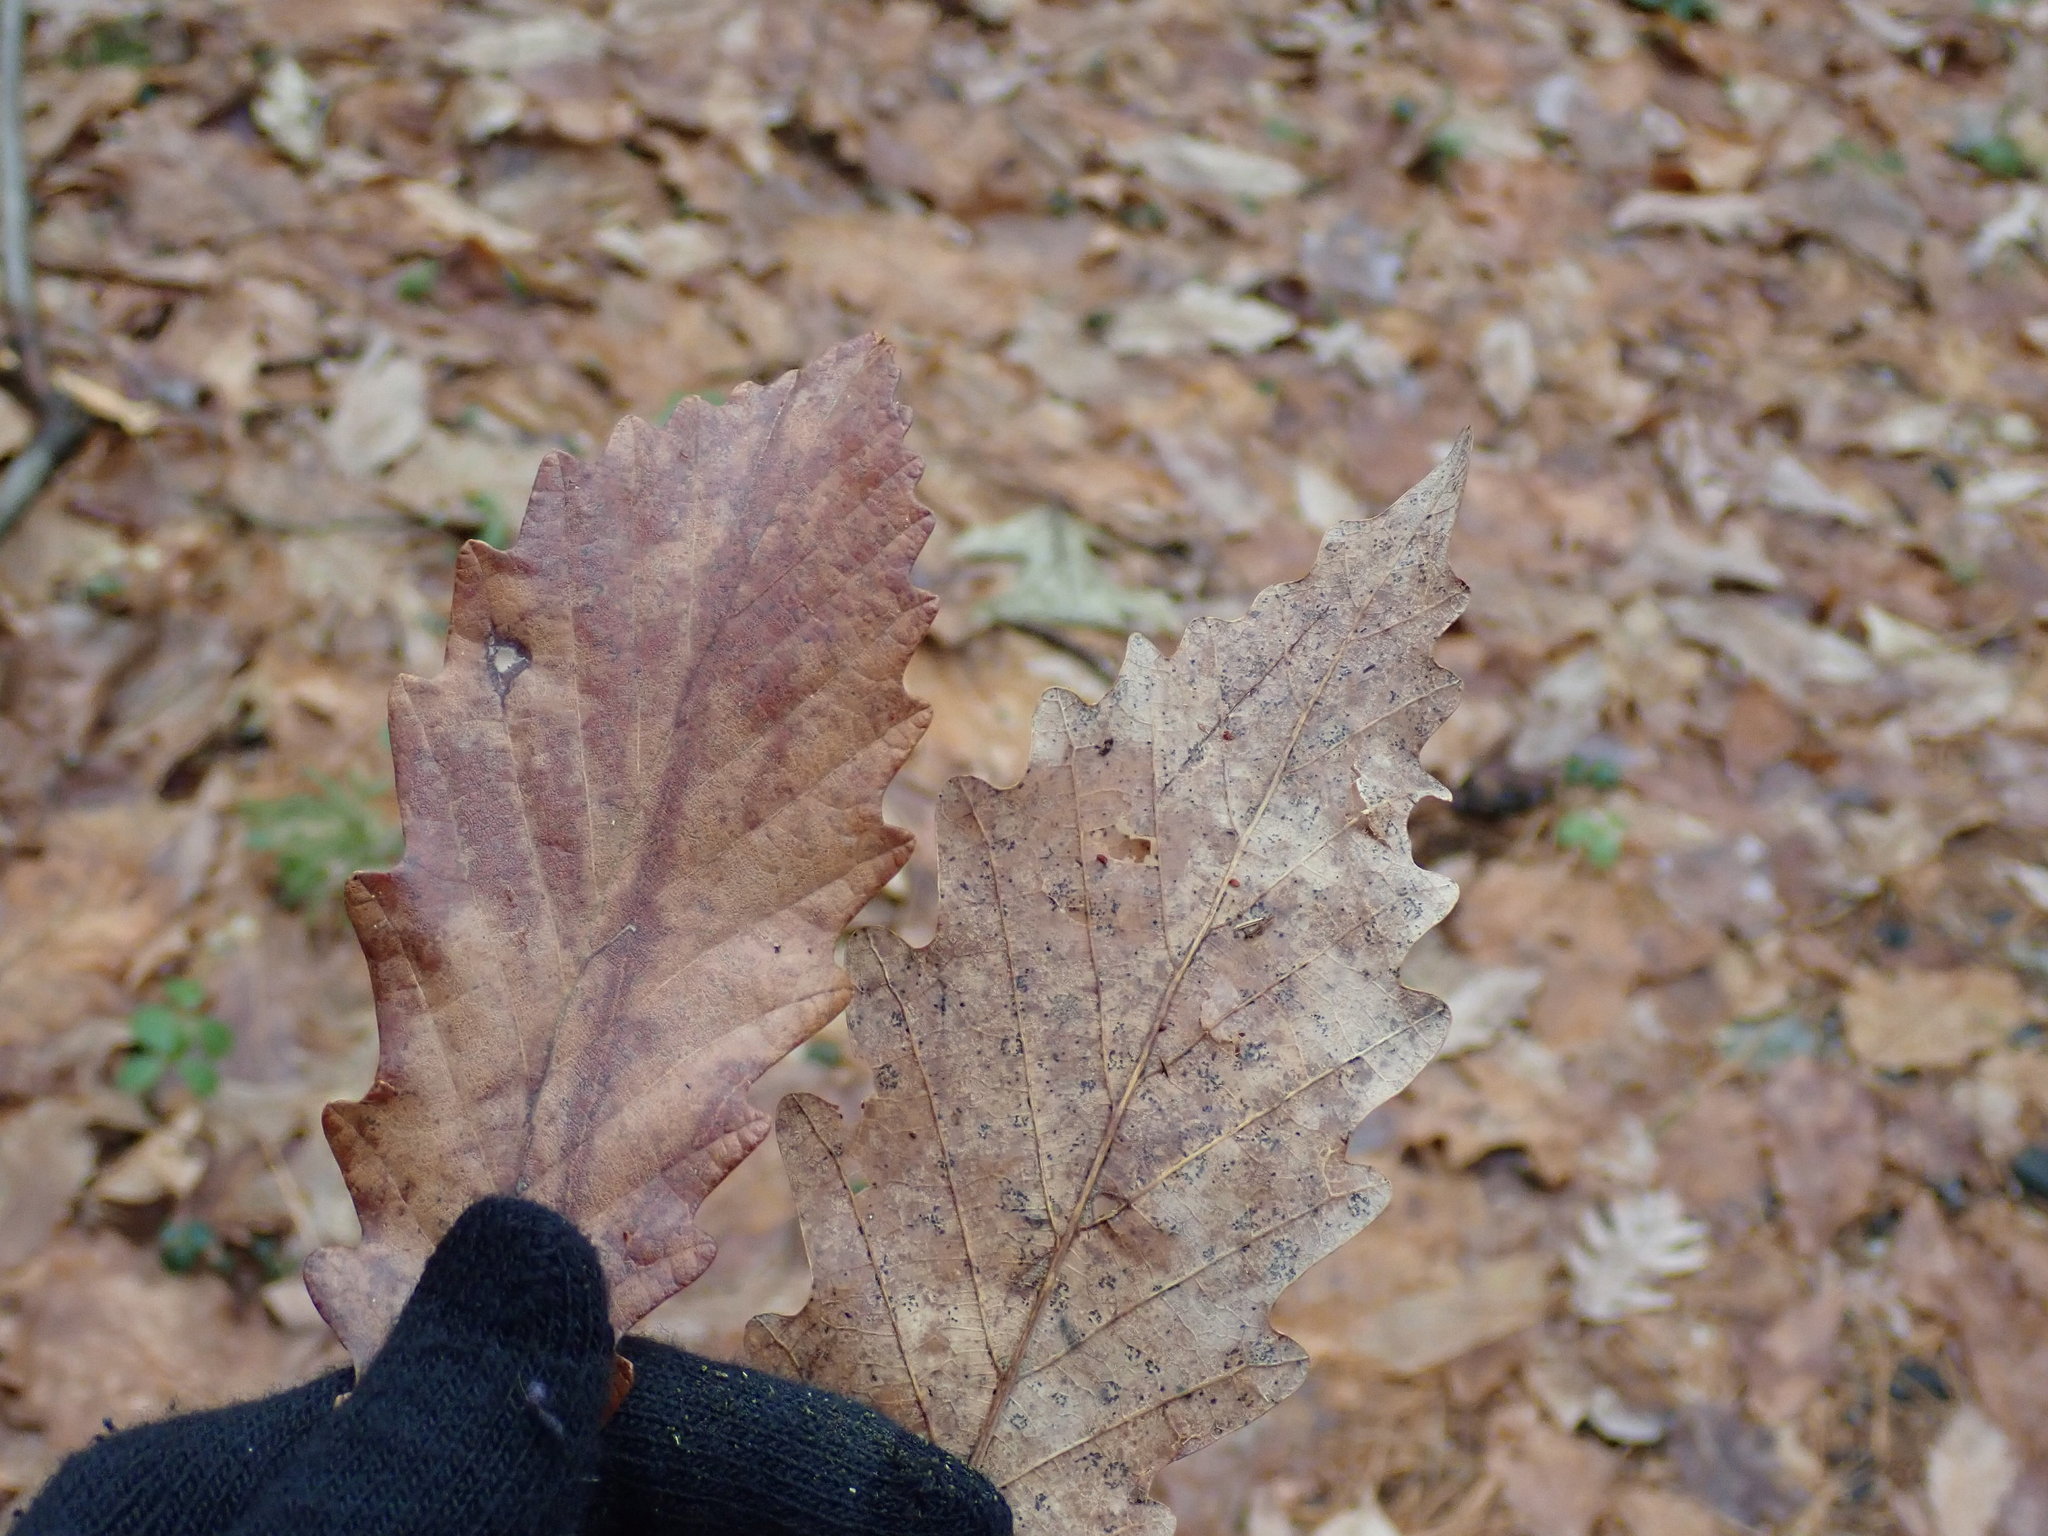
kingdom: Plantae
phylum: Tracheophyta
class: Magnoliopsida
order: Fagales
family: Fagaceae
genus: Quercus
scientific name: Quercus montana
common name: Chestnut oak
